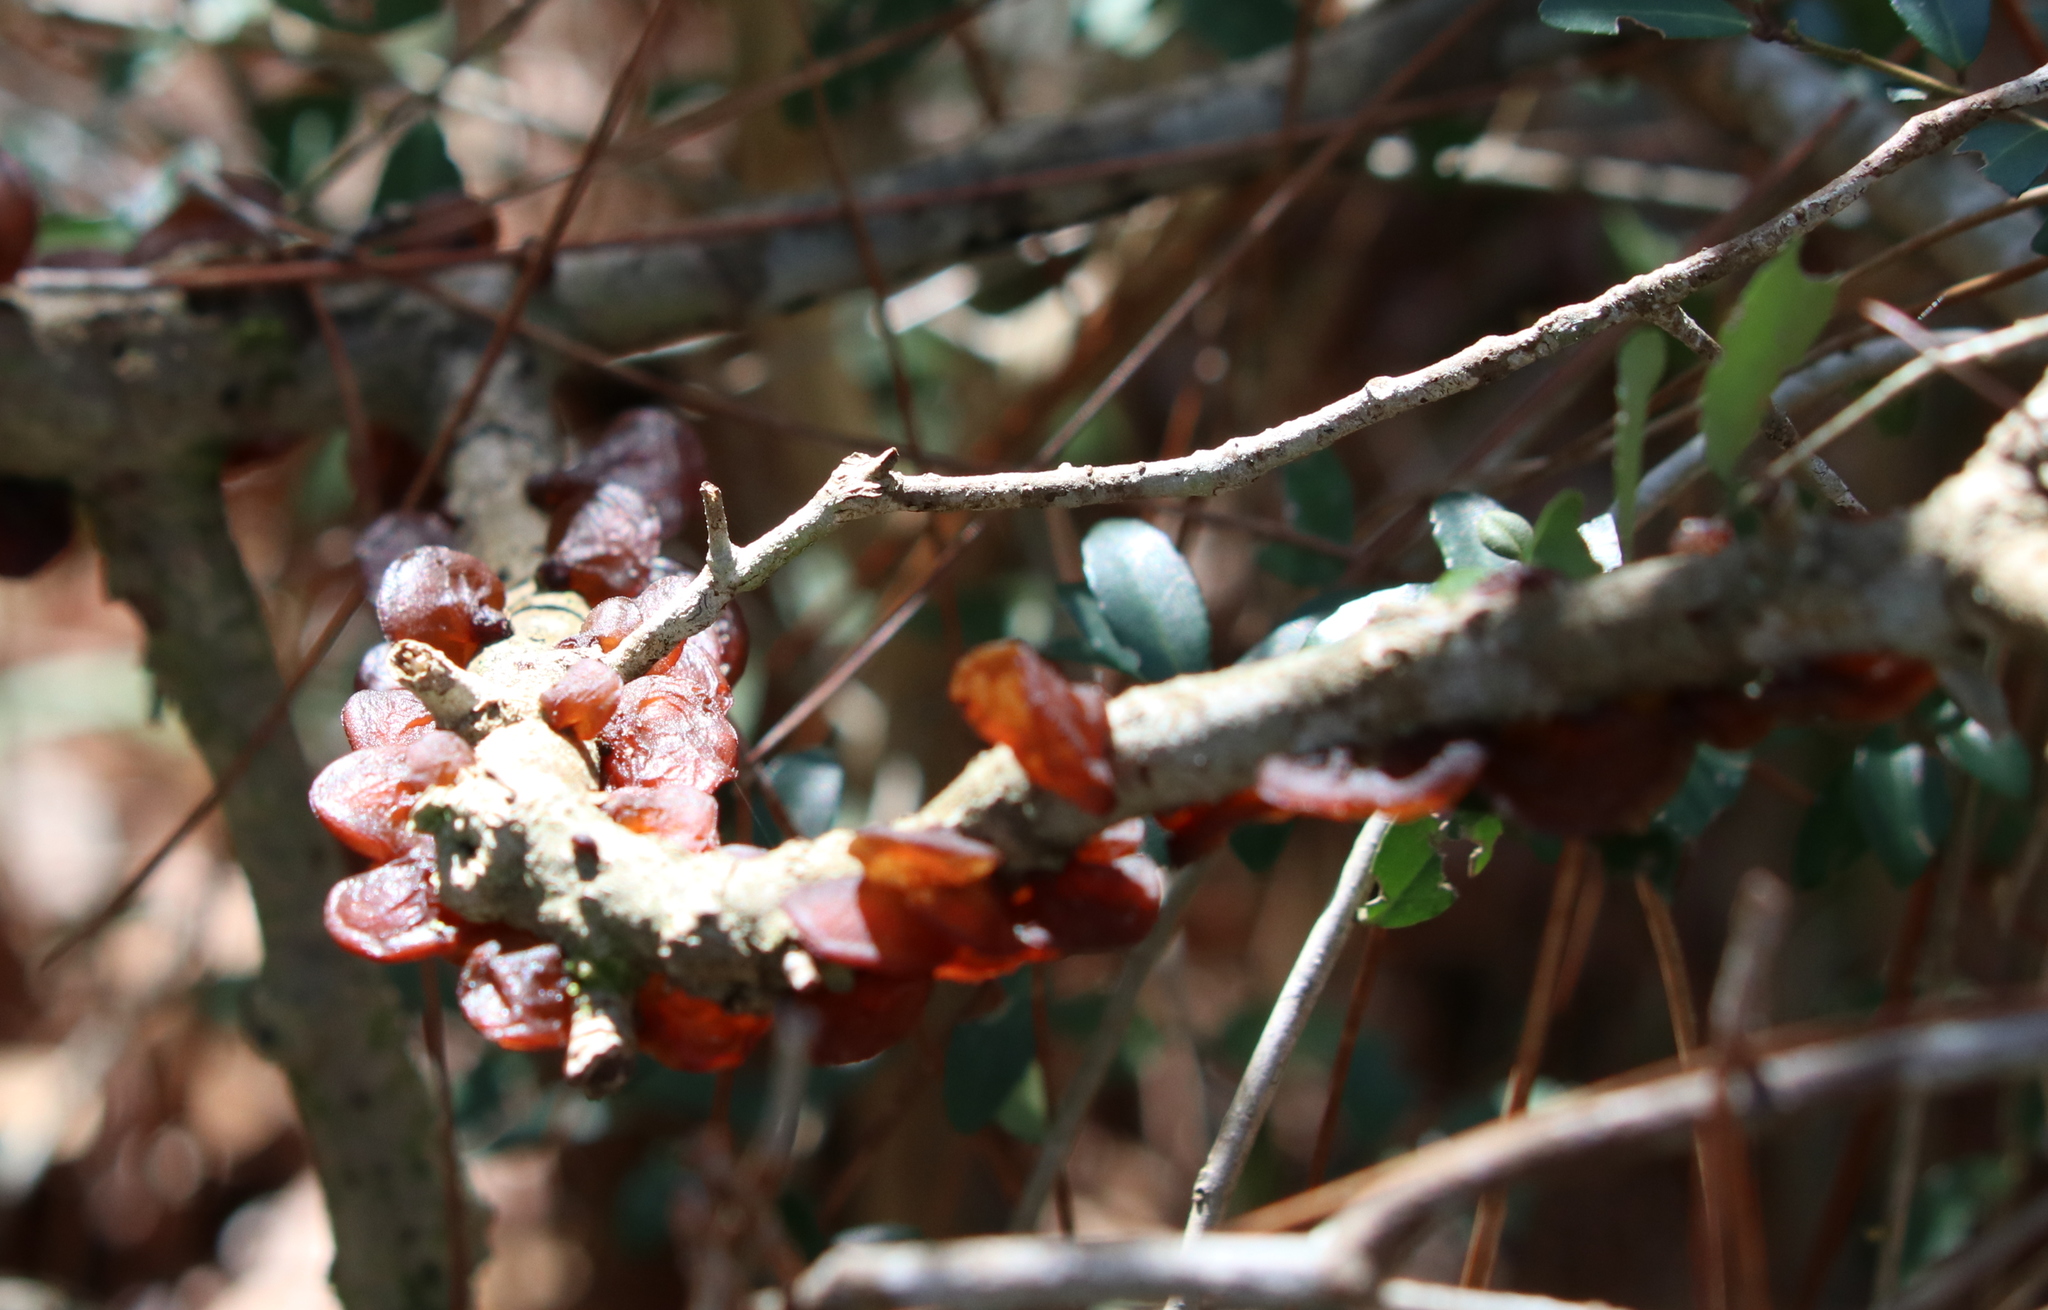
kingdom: Fungi
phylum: Basidiomycota
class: Agaricomycetes
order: Auriculariales
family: Auriculariaceae
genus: Exidia
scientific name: Exidia
